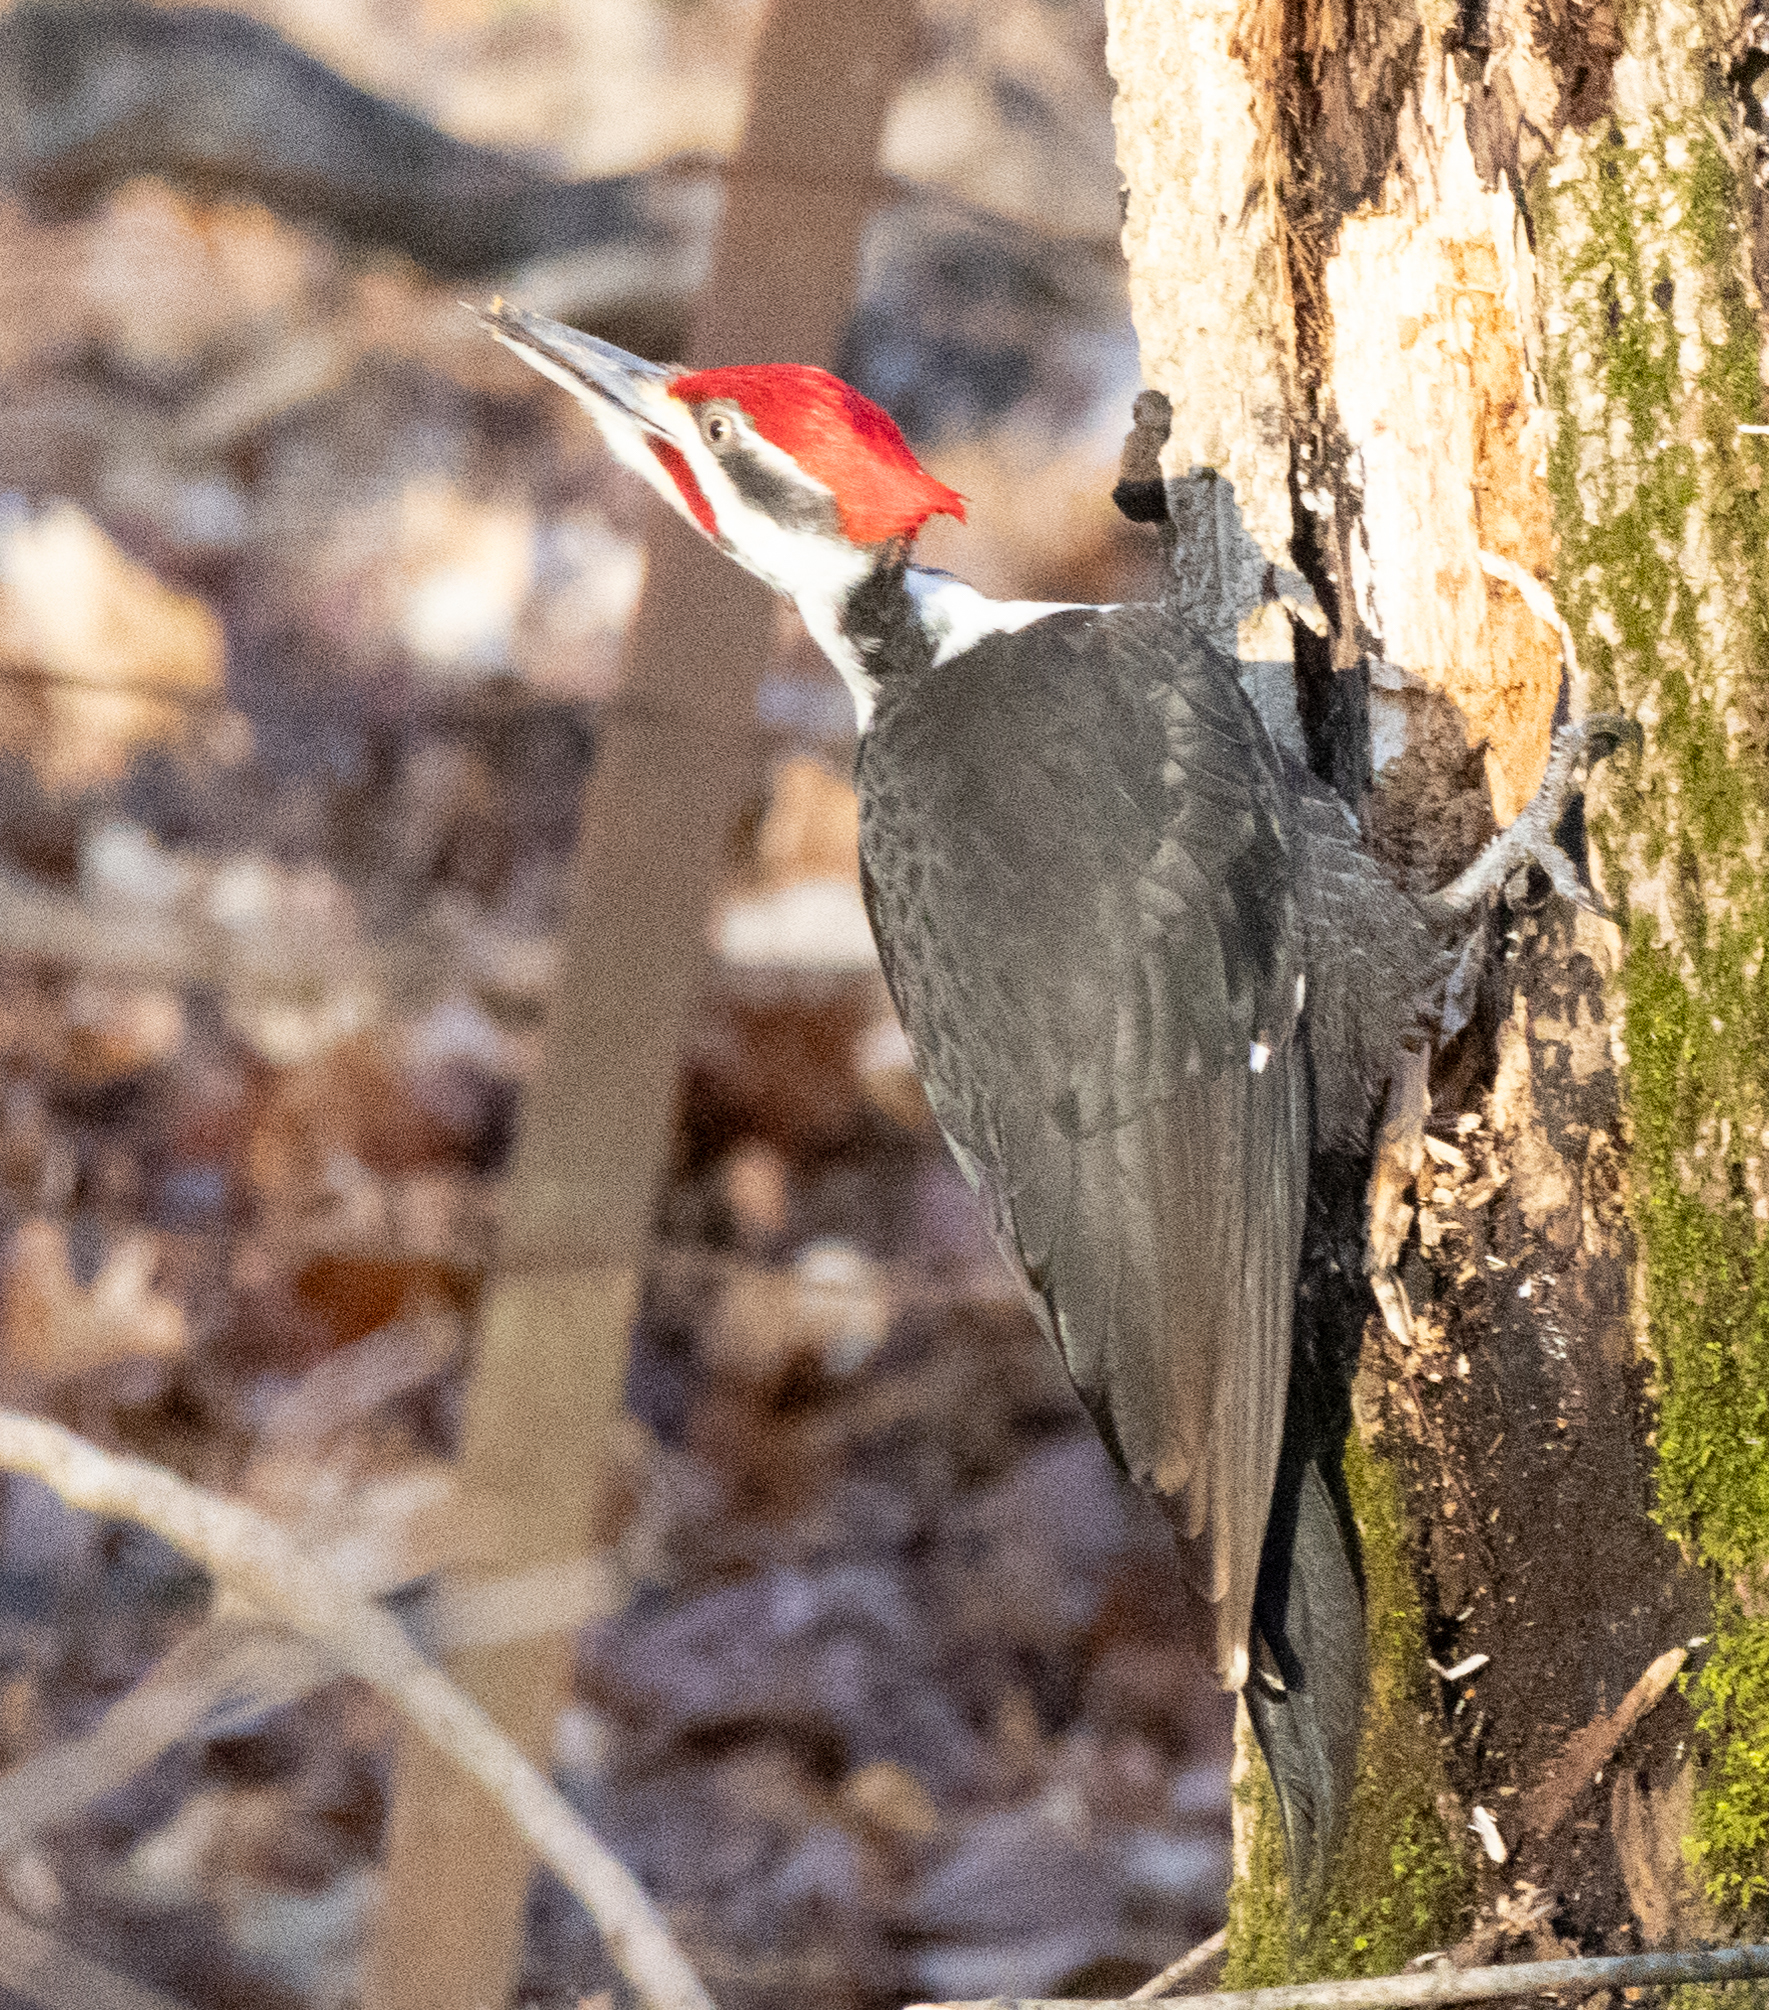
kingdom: Animalia
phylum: Chordata
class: Aves
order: Piciformes
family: Picidae
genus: Dryocopus
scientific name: Dryocopus pileatus
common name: Pileated woodpecker
